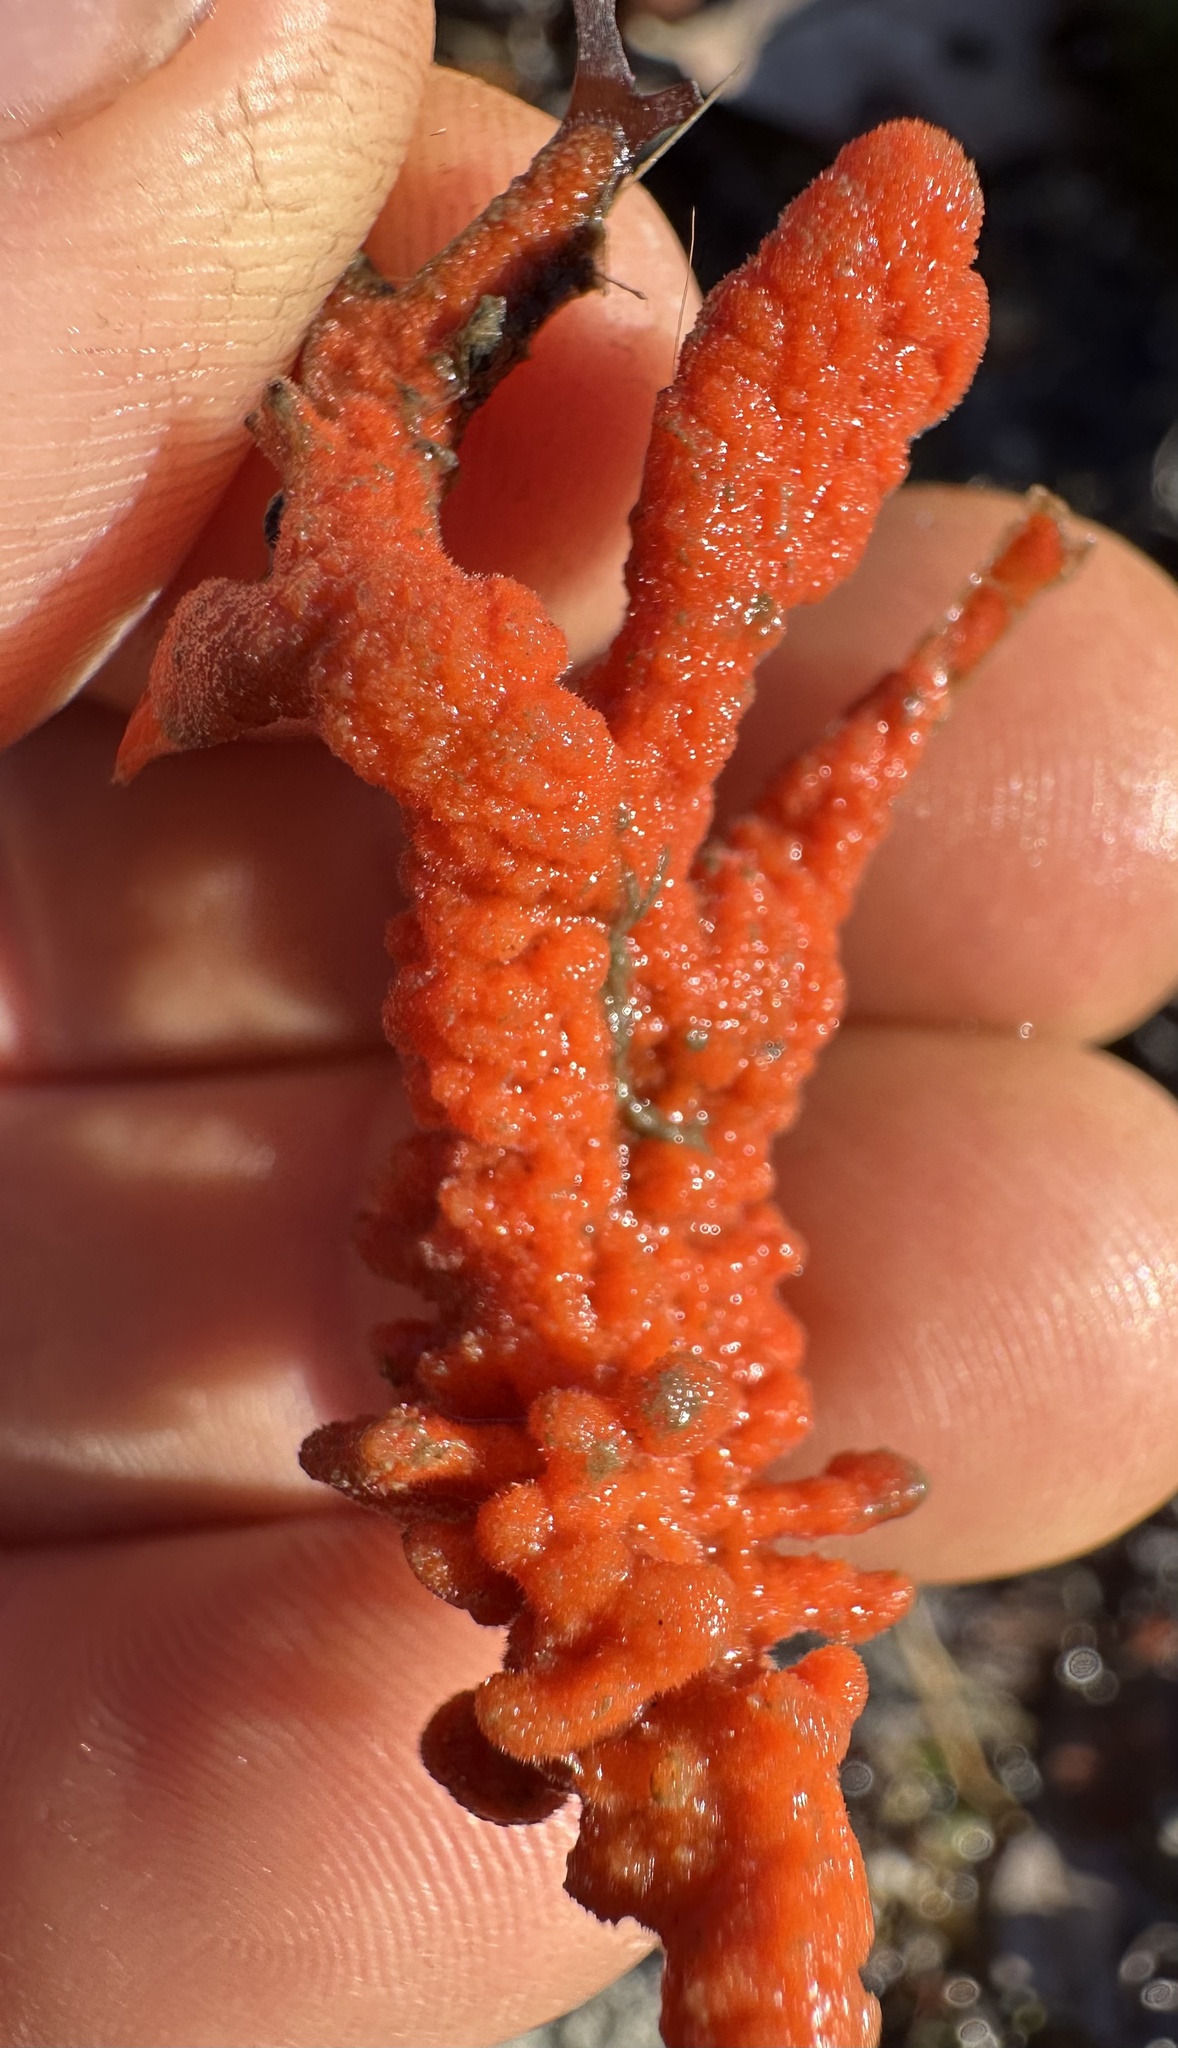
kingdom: Animalia
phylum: Porifera
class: Demospongiae
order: Poecilosclerida
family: Microcionidae
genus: Clathria
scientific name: Clathria prolifera
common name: Red beard sponge
